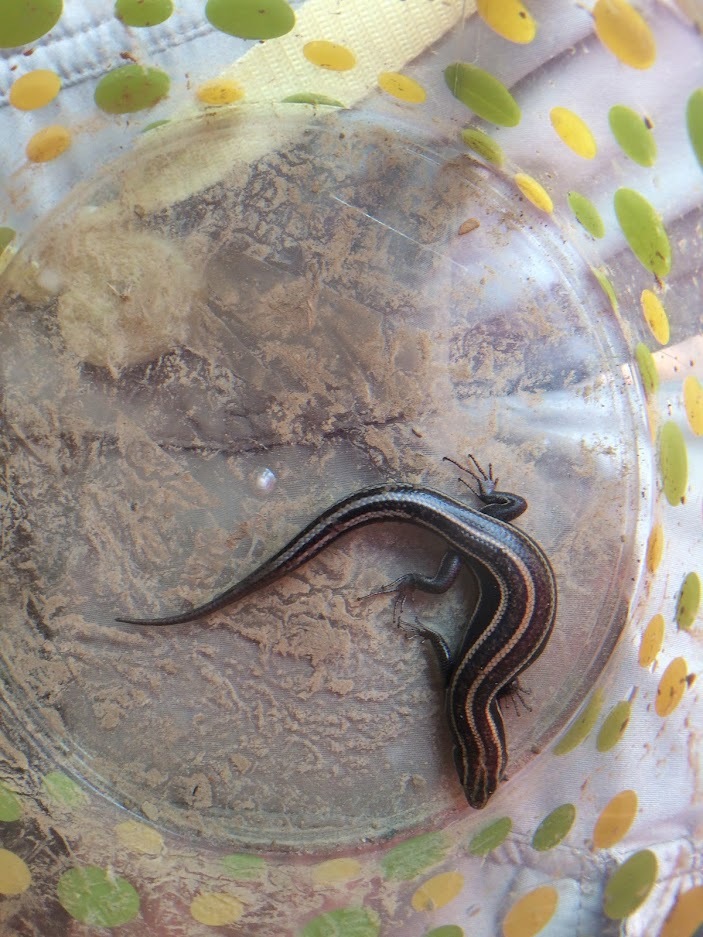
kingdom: Animalia
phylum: Chordata
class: Squamata
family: Scincidae
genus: Plestiodon
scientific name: Plestiodon fasciatus
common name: Five-lined skink
